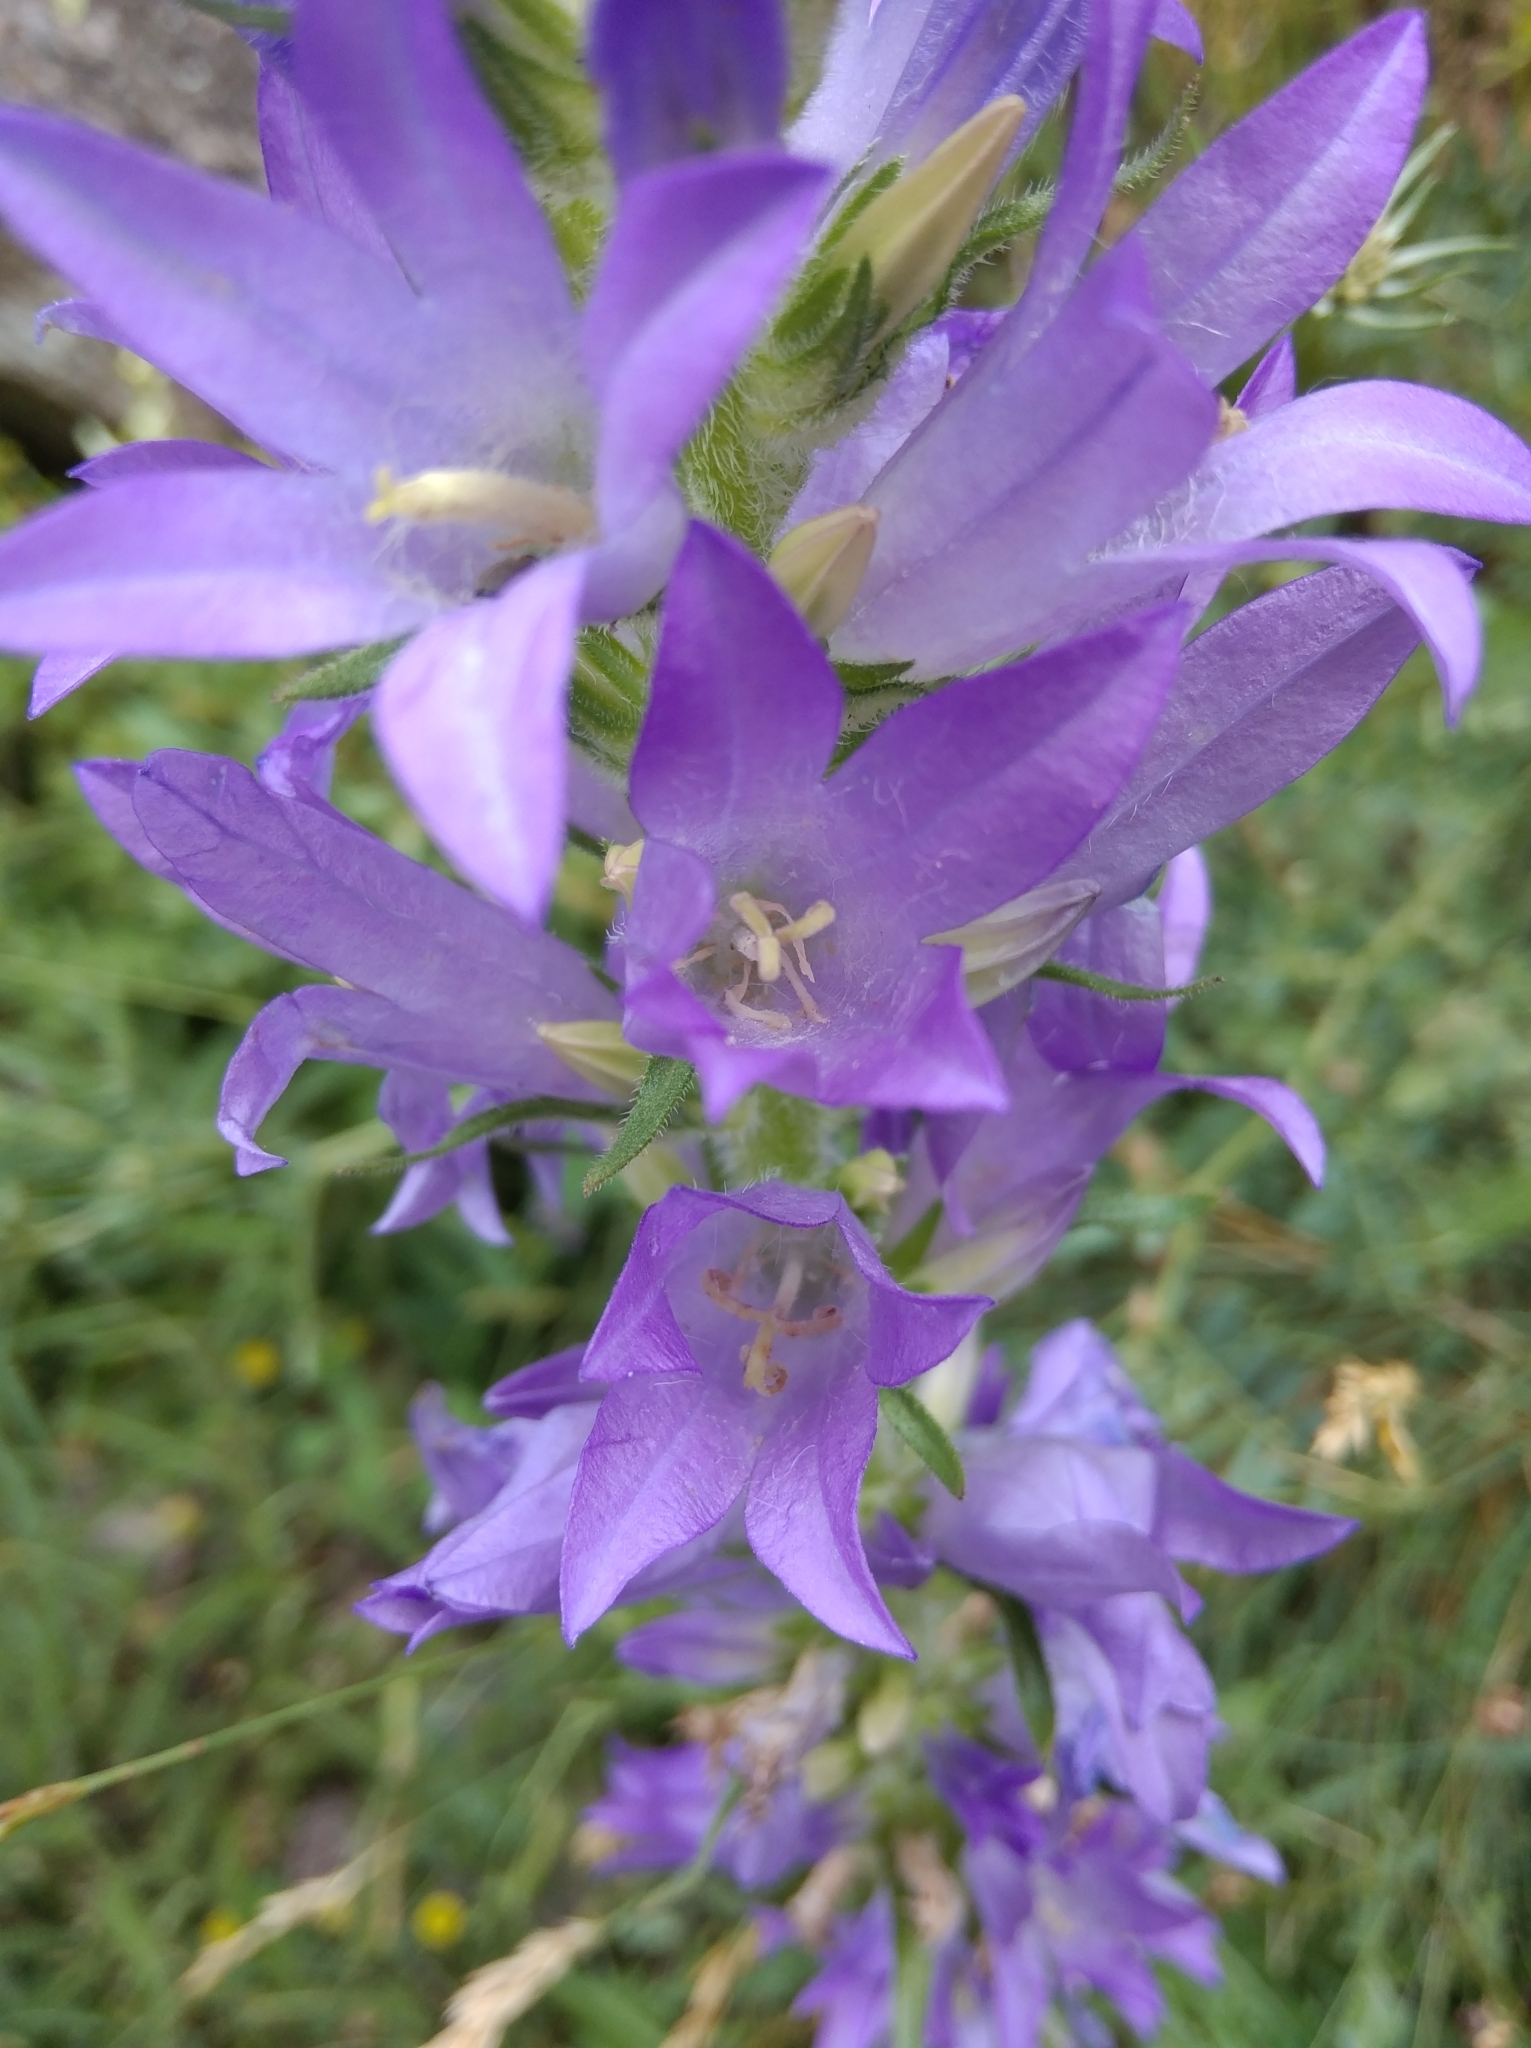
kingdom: Plantae
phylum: Tracheophyta
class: Magnoliopsida
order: Asterales
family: Campanulaceae
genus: Campanula
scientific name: Campanula spicata
